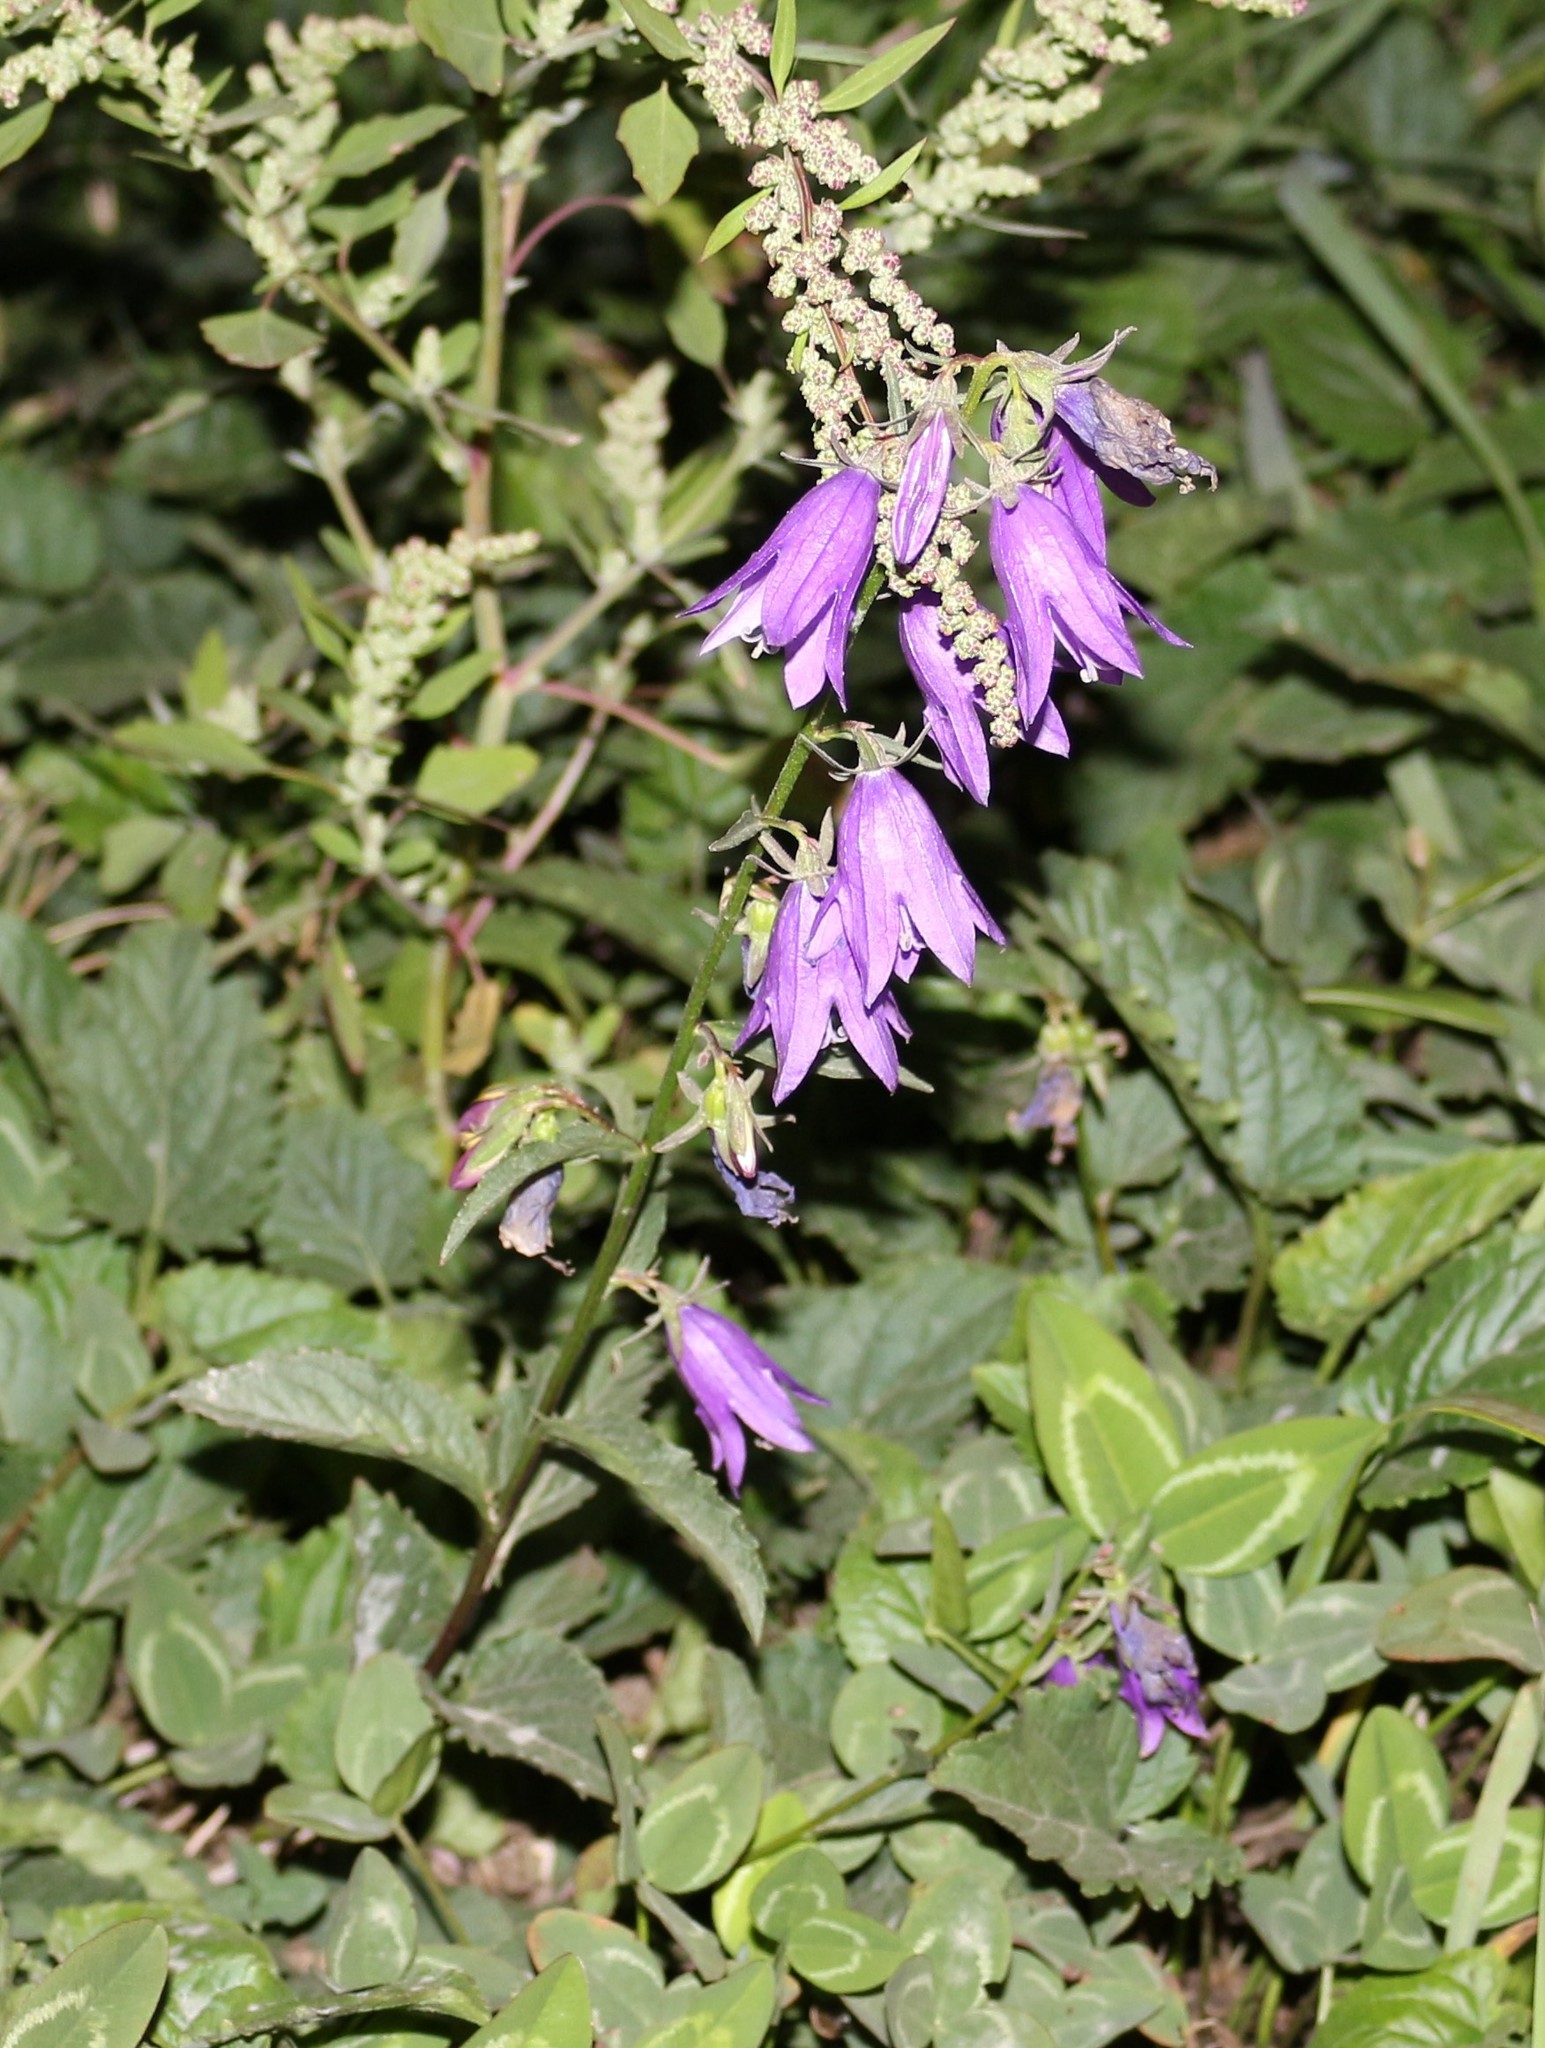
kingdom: Plantae
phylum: Tracheophyta
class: Magnoliopsida
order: Asterales
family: Campanulaceae
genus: Campanula
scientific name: Campanula rapunculoides
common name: Creeping bellflower
